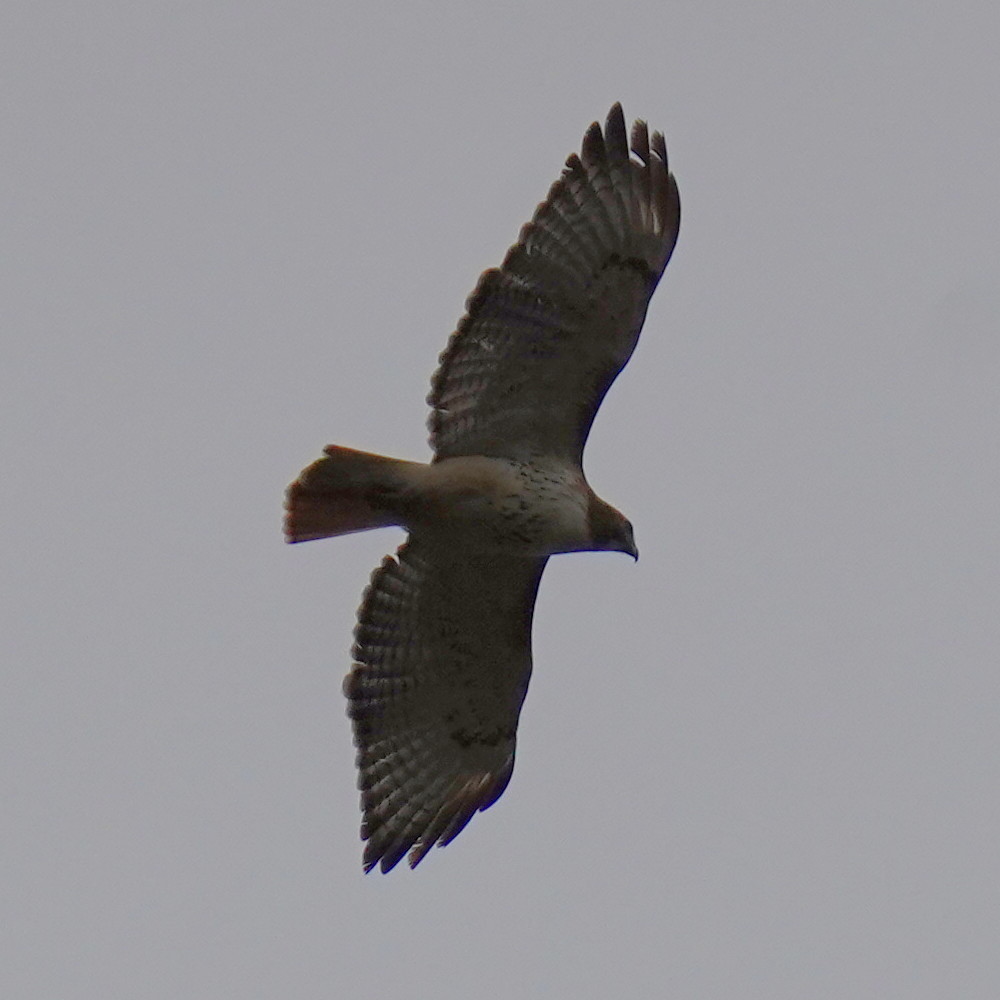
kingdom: Animalia
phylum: Chordata
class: Aves
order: Accipitriformes
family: Accipitridae
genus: Buteo
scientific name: Buteo jamaicensis
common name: Red-tailed hawk
